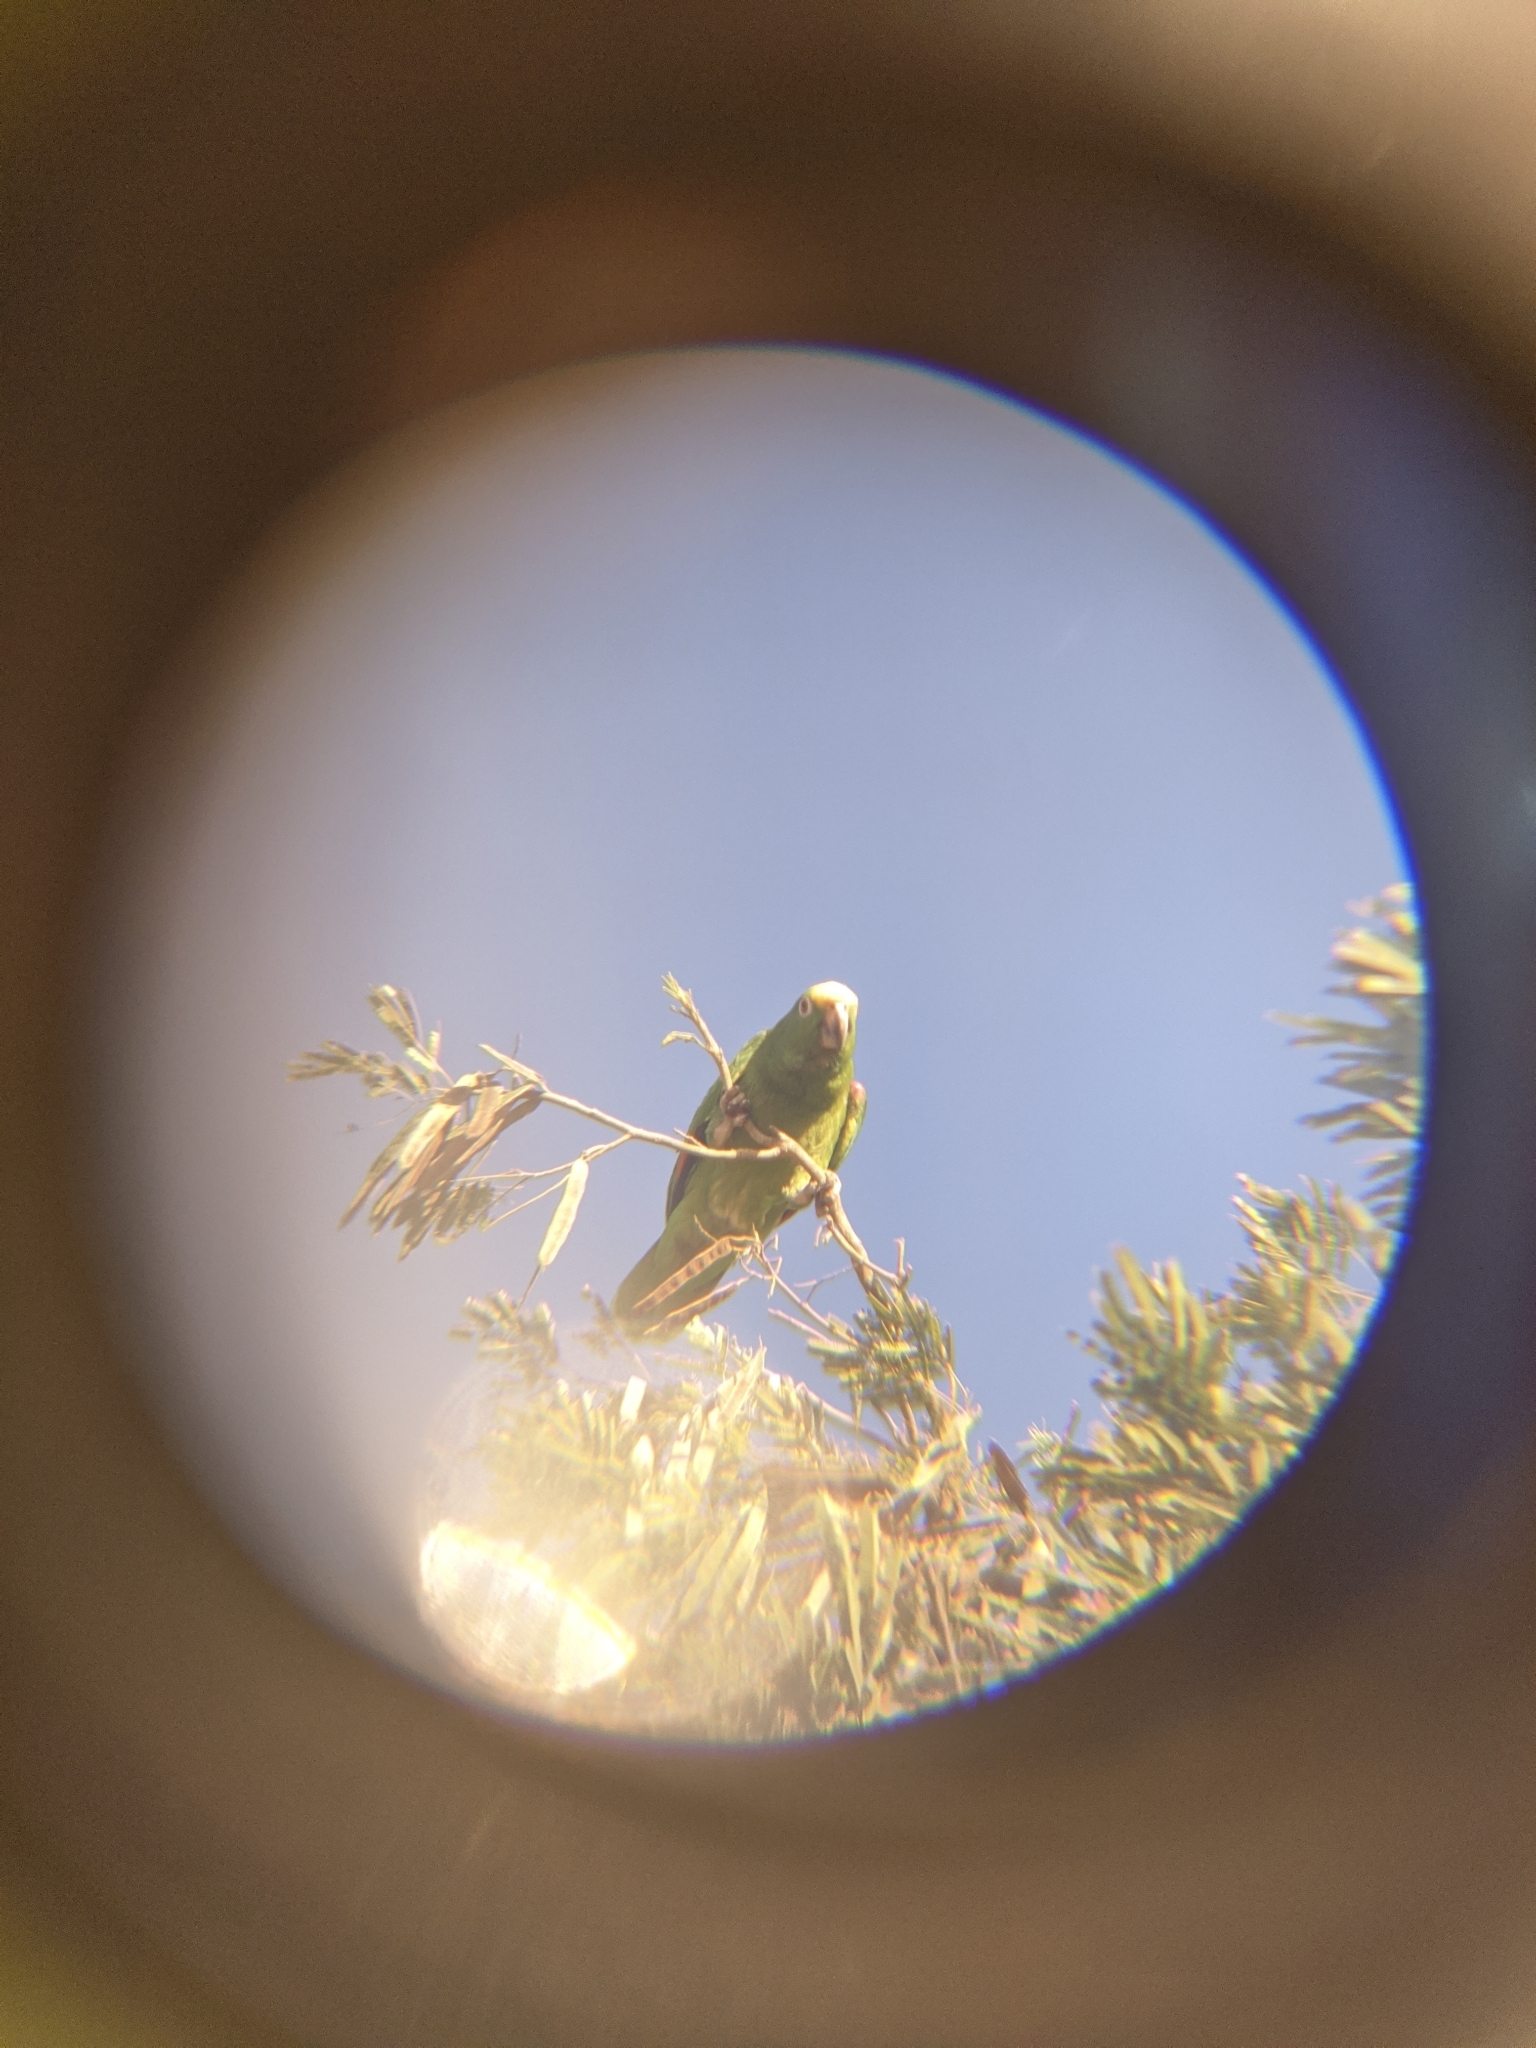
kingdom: Animalia
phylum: Chordata
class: Aves
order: Psittaciformes
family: Psittacidae
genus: Amazona
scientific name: Amazona ochrocephala
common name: Yellow-crowned amazon
